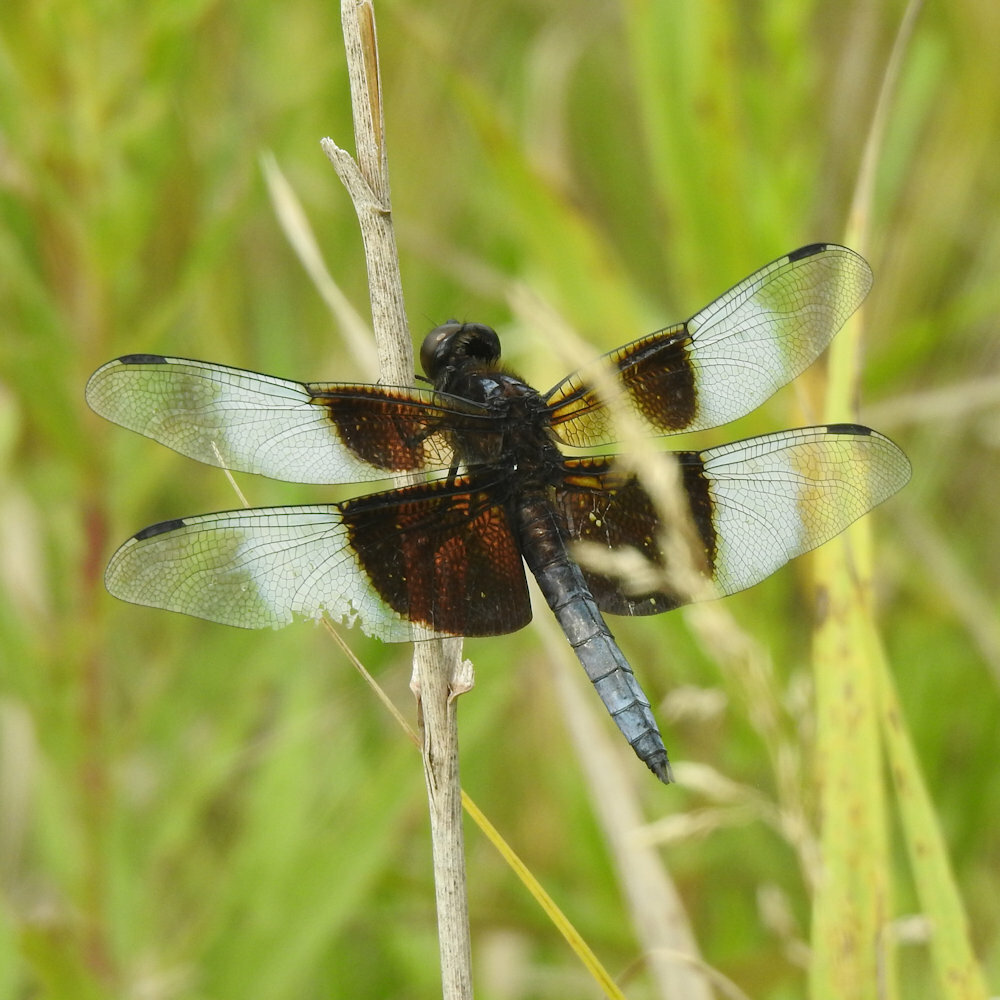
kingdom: Animalia
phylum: Arthropoda
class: Insecta
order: Odonata
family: Libellulidae
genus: Libellula
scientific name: Libellula luctuosa
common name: Widow skimmer
